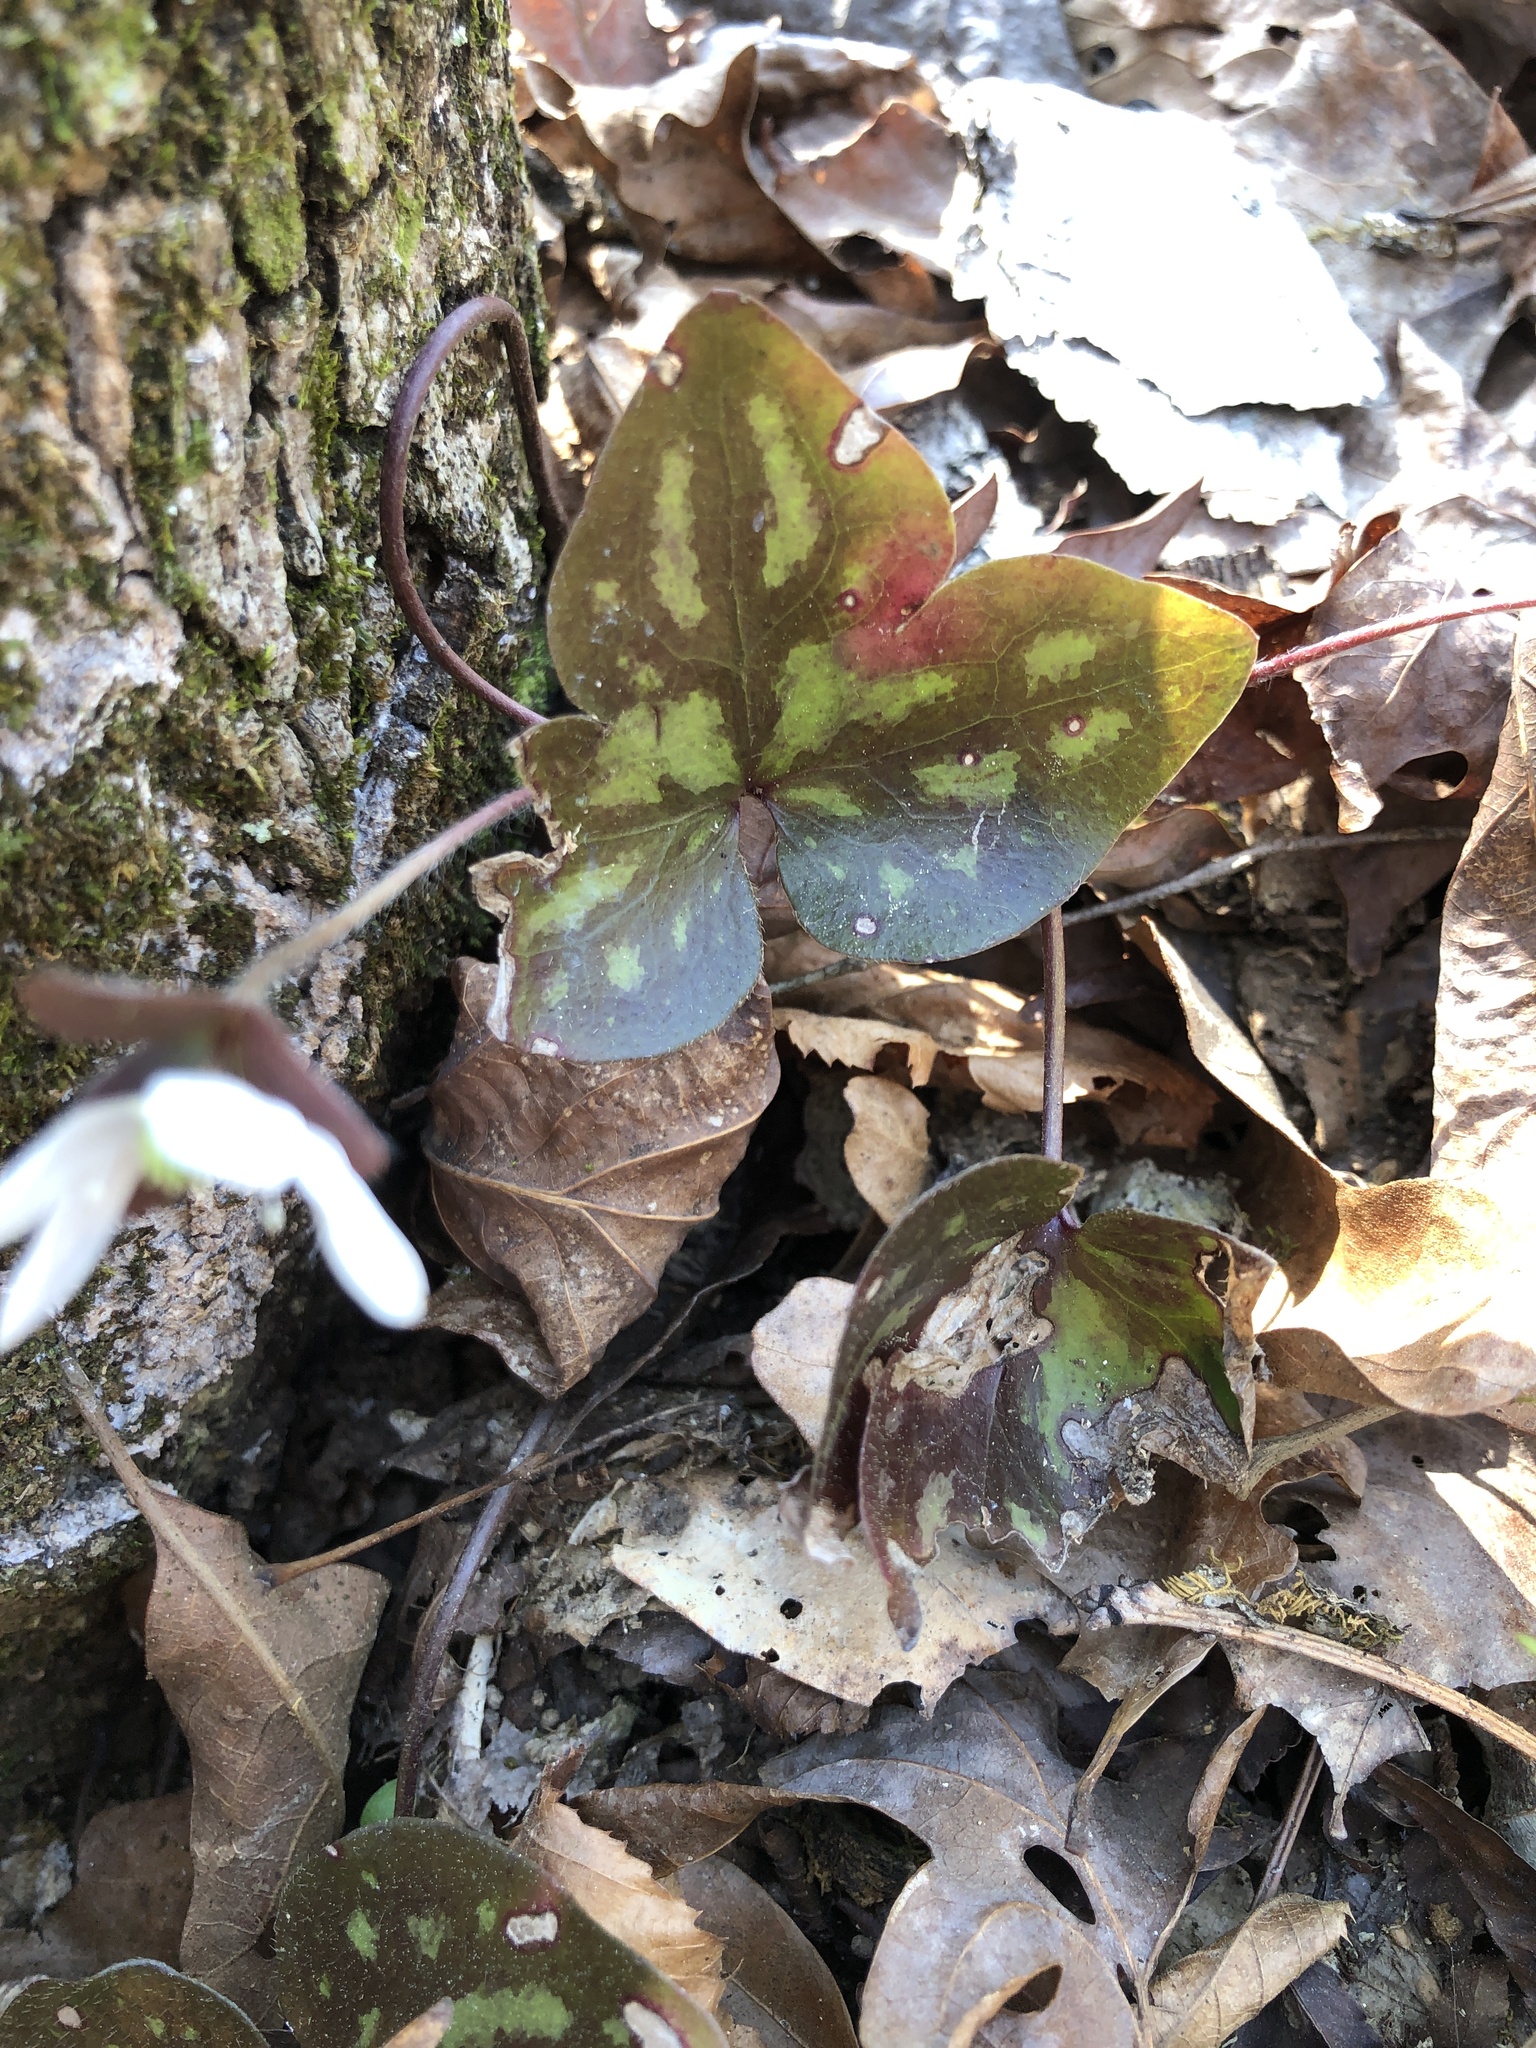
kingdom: Plantae
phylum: Tracheophyta
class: Magnoliopsida
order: Ranunculales
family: Ranunculaceae
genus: Hepatica
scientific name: Hepatica acutiloba
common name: Sharp-lobed hepatica
